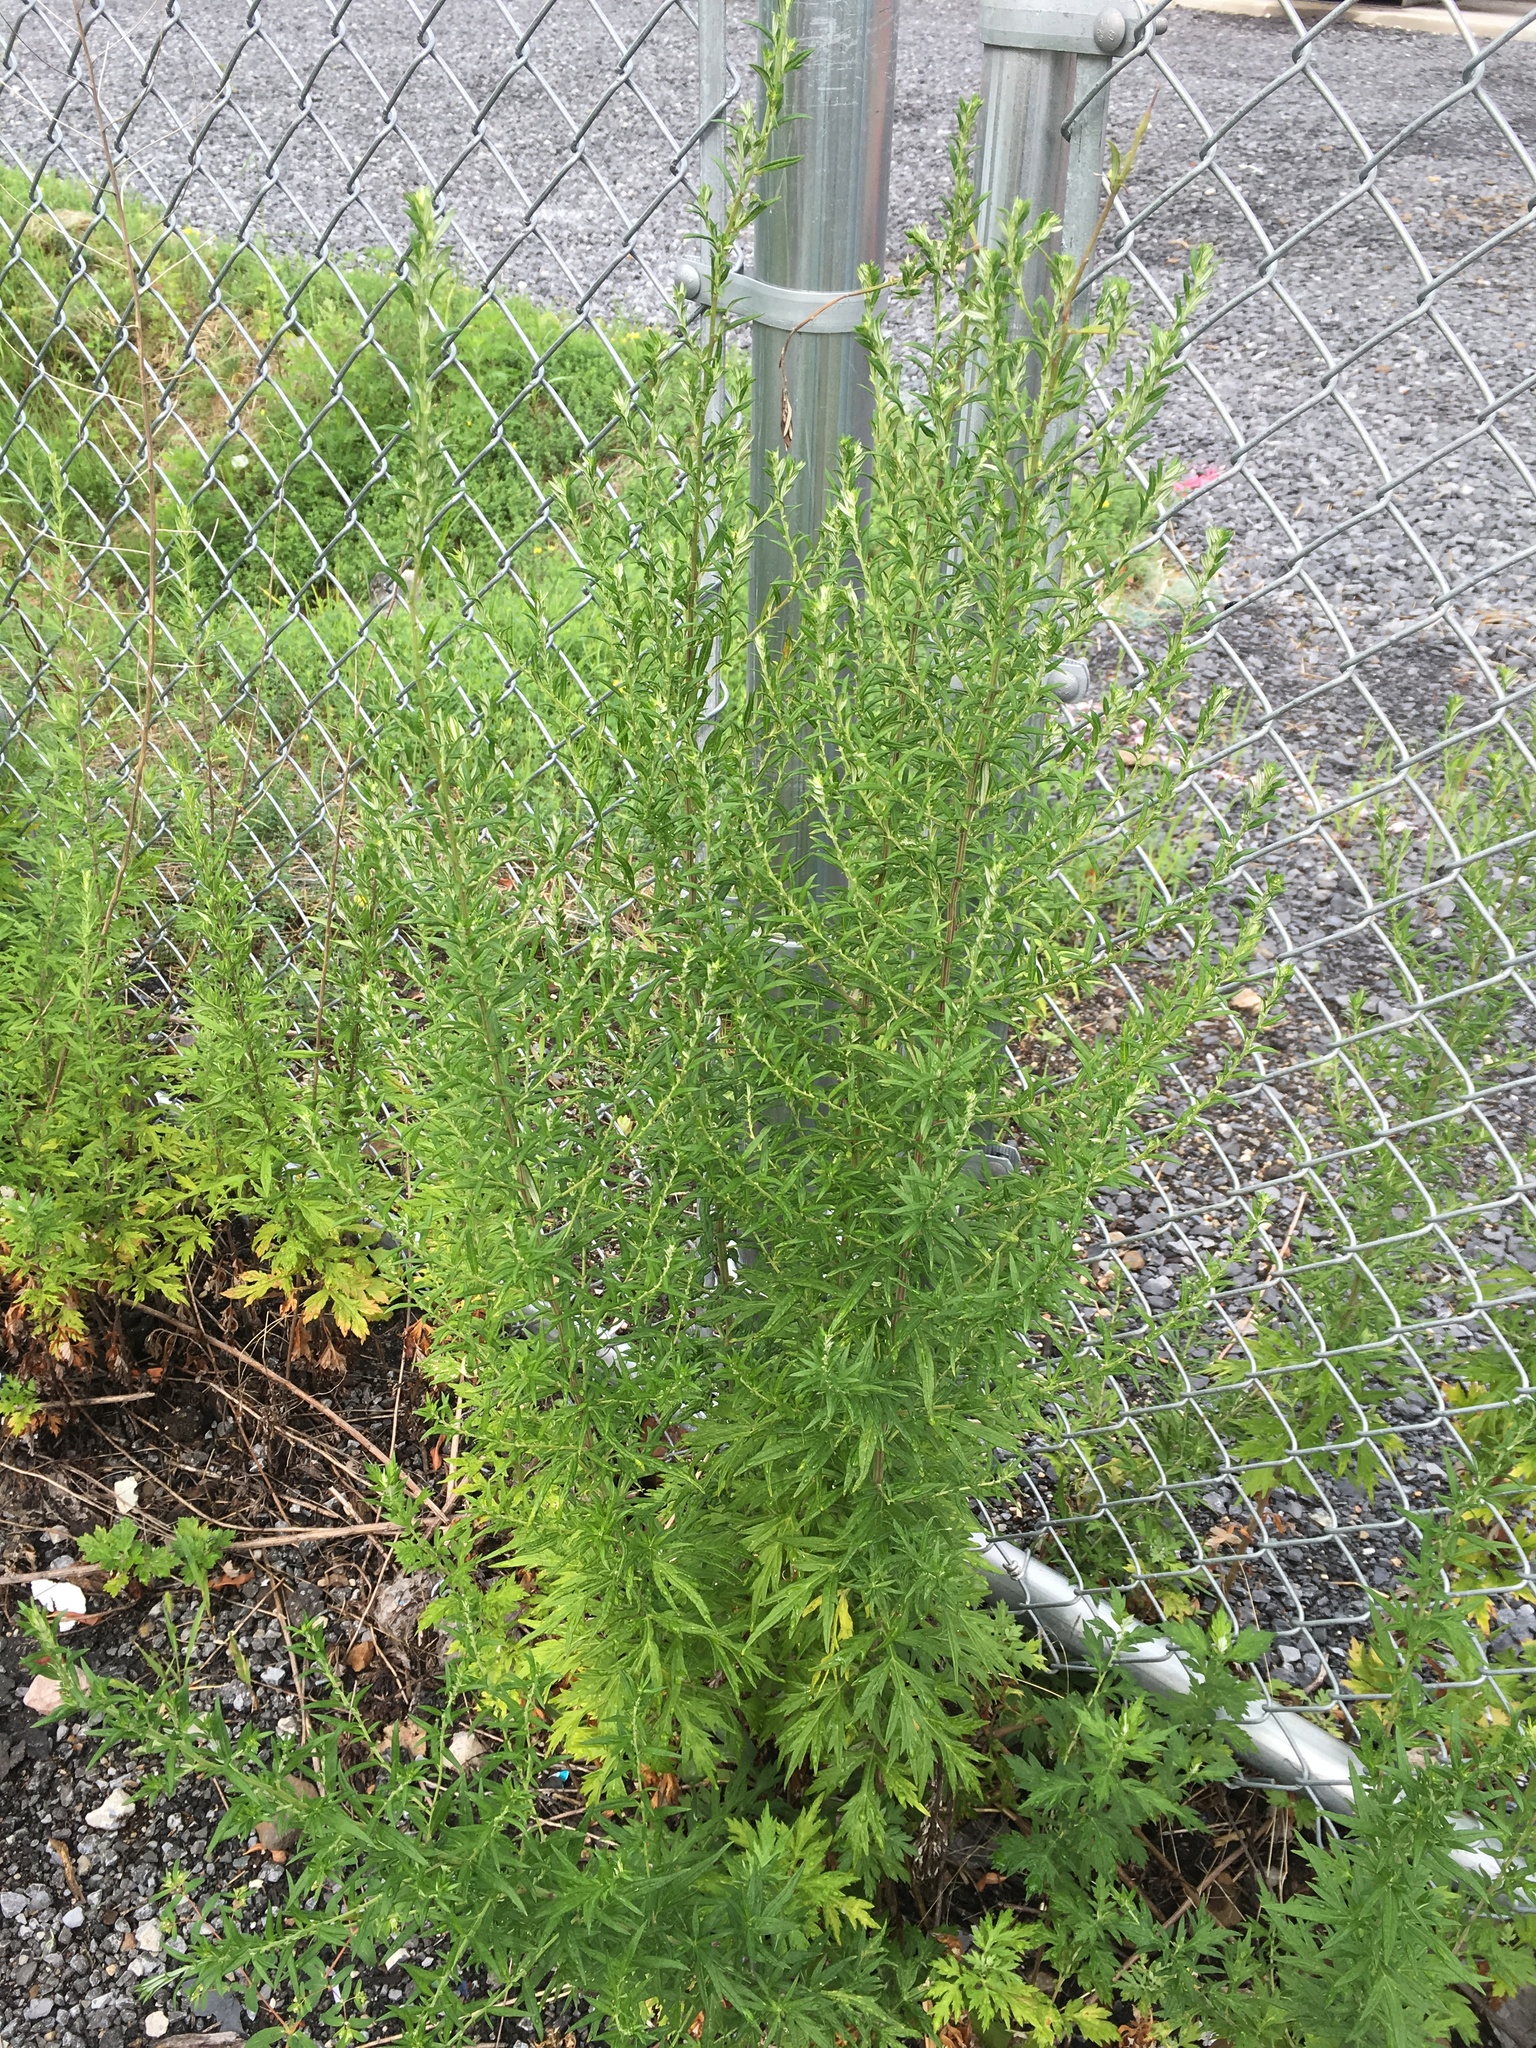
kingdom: Plantae
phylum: Tracheophyta
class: Magnoliopsida
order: Asterales
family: Asteraceae
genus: Artemisia
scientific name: Artemisia vulgaris
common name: Mugwort
